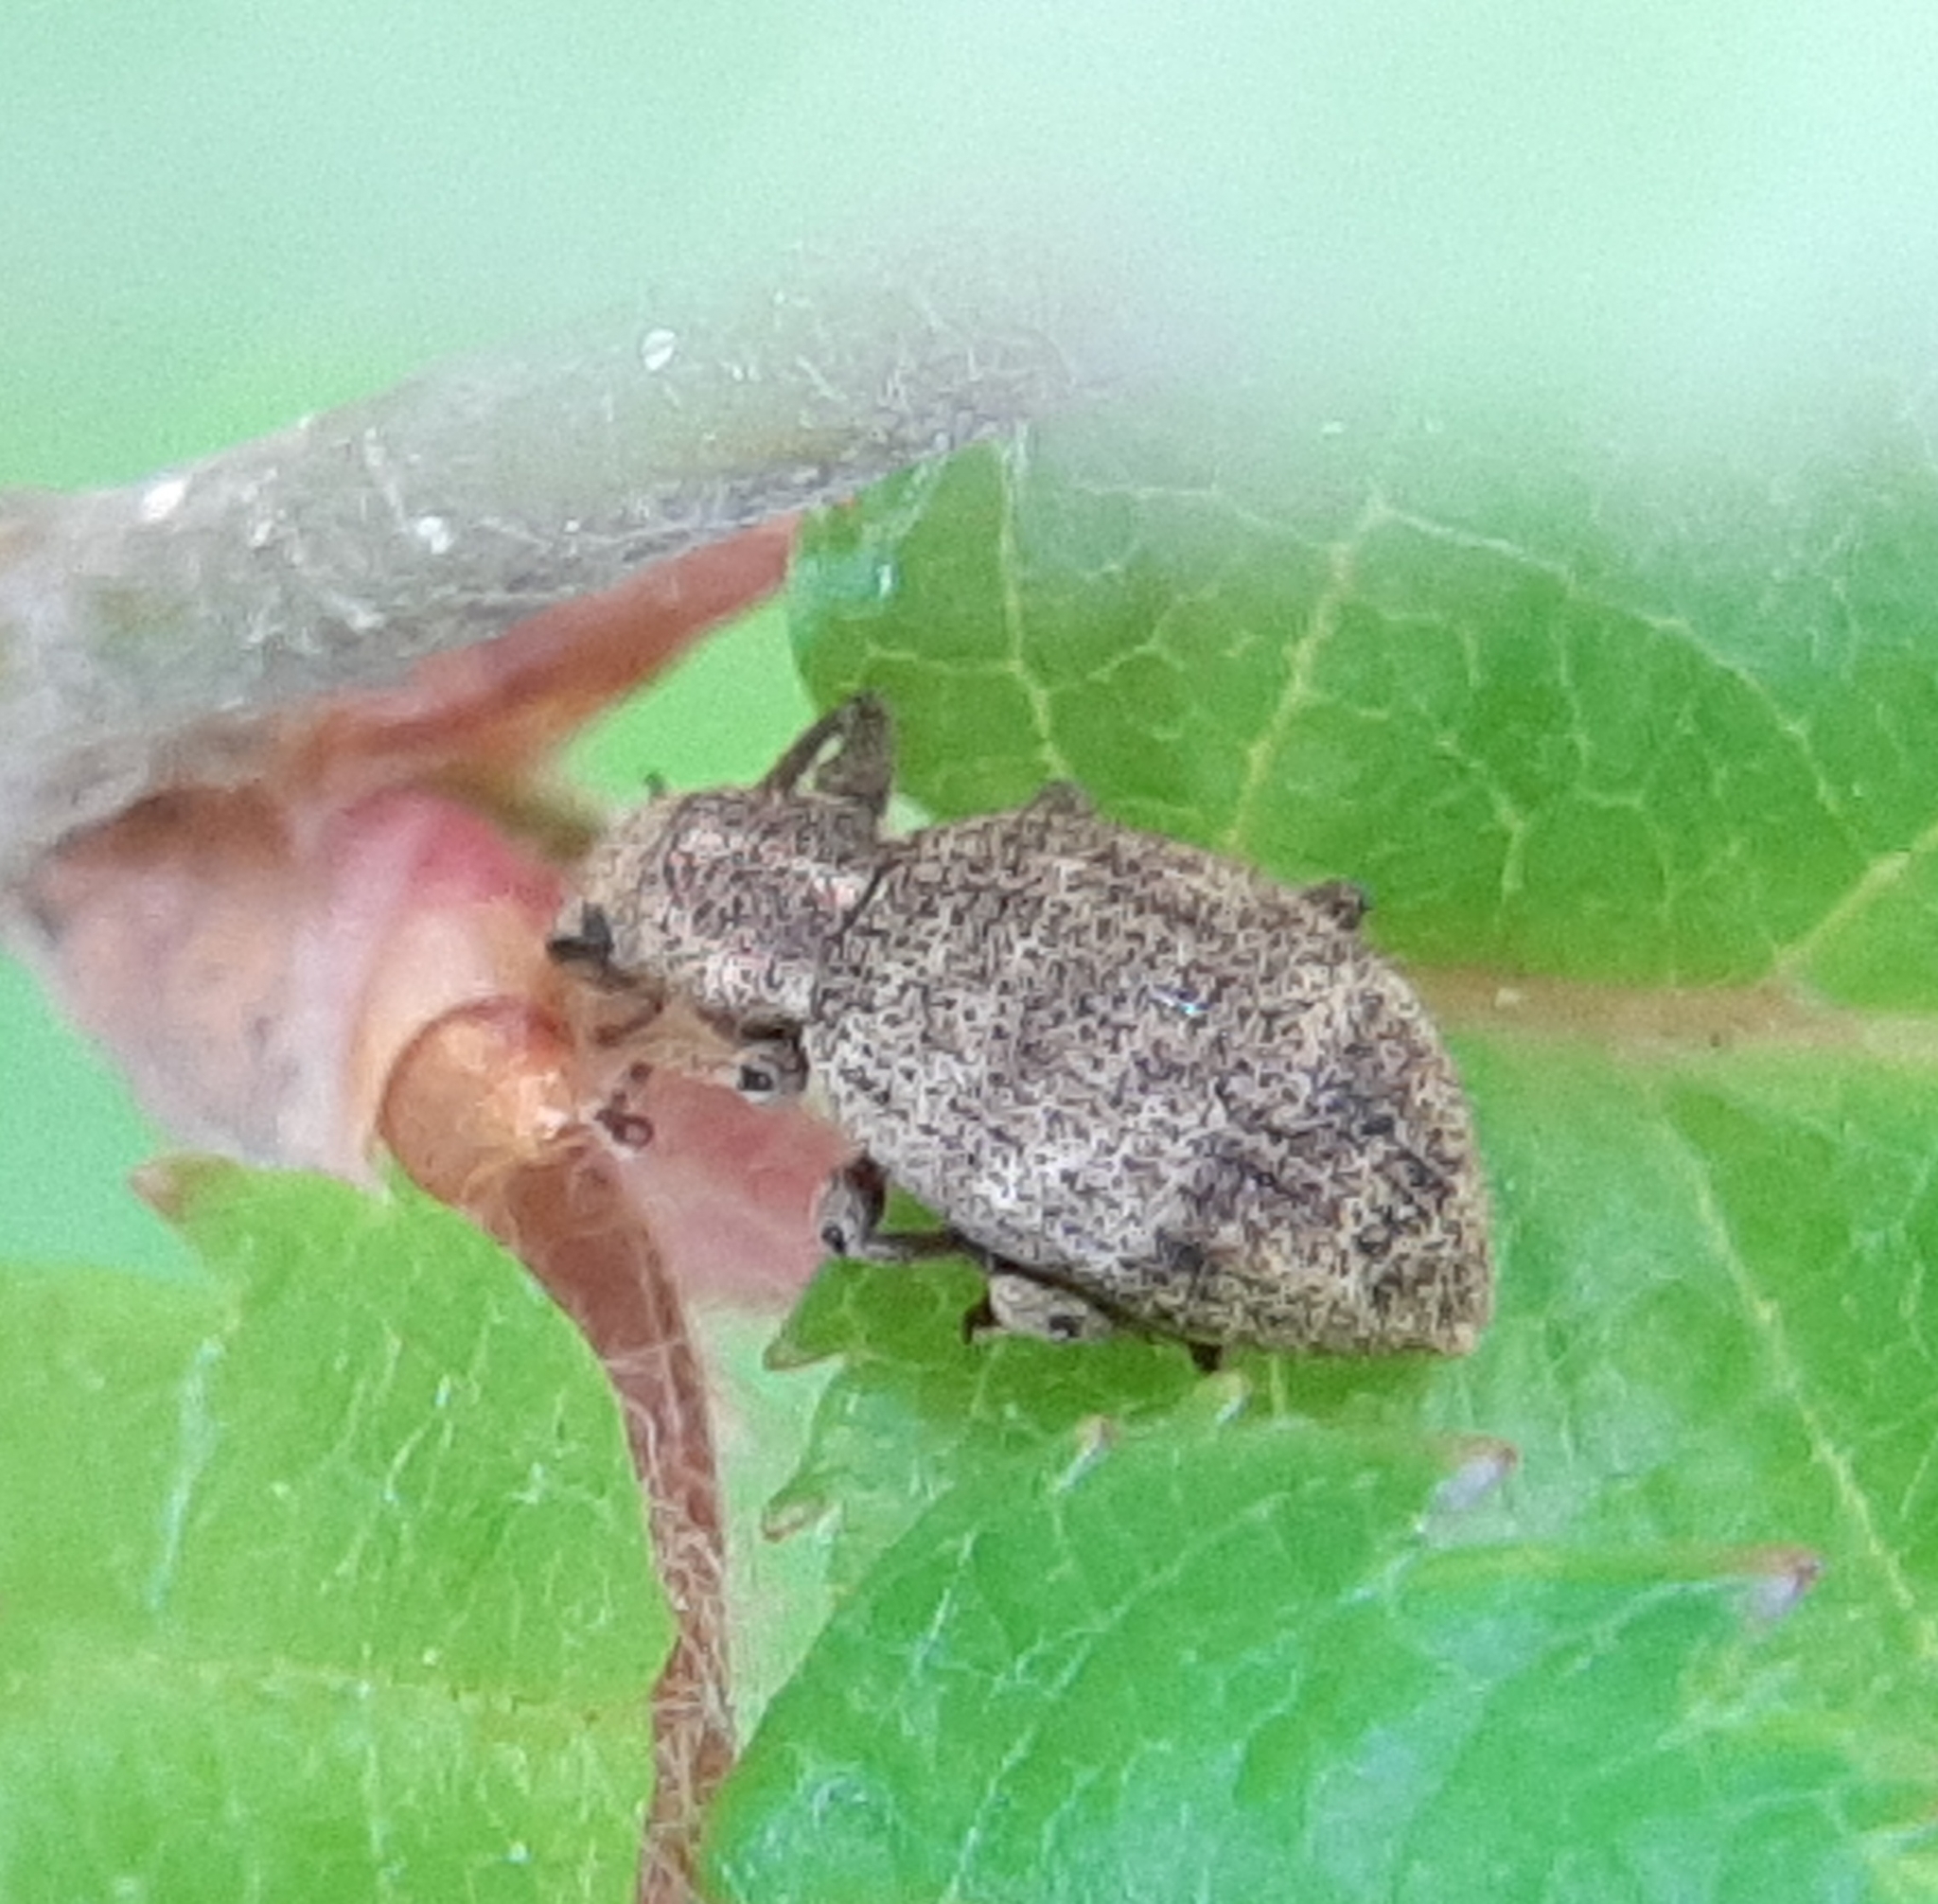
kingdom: Animalia
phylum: Arthropoda
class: Insecta
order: Coleoptera
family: Curculionidae
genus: Sciaphilus
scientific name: Sciaphilus asperatus
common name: Weevil
